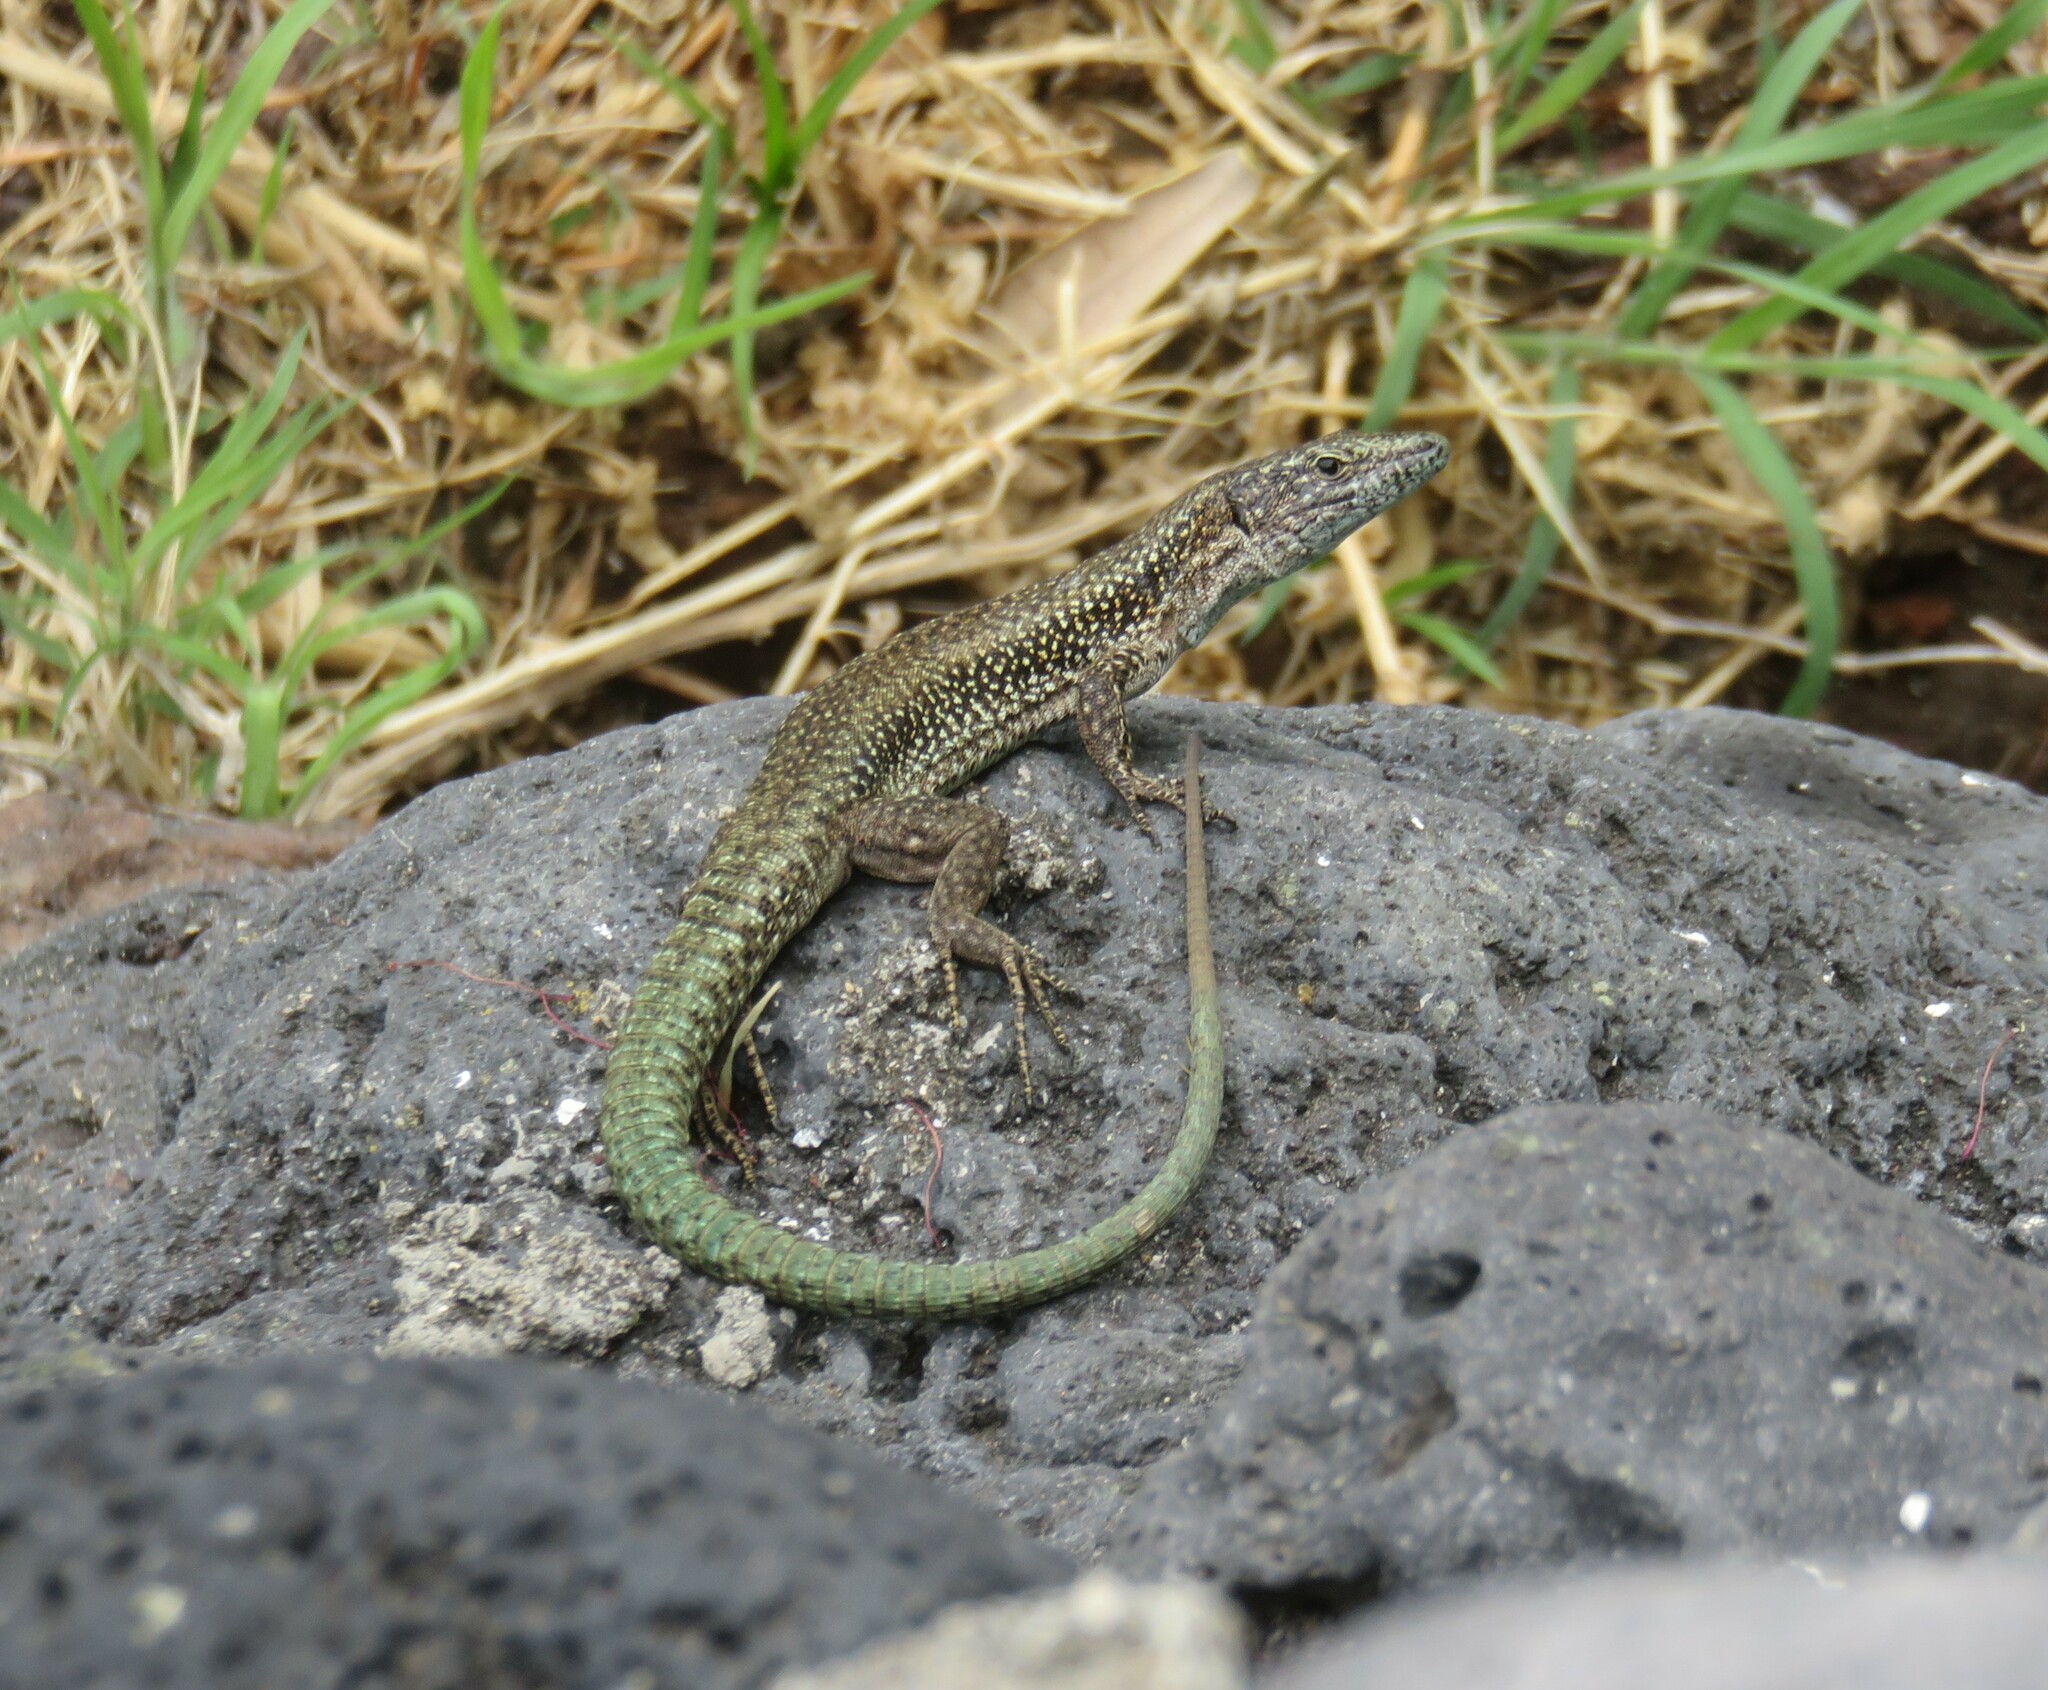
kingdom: Animalia
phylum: Chordata
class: Squamata
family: Lacertidae
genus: Teira
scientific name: Teira dugesii
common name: Madeira lizard
